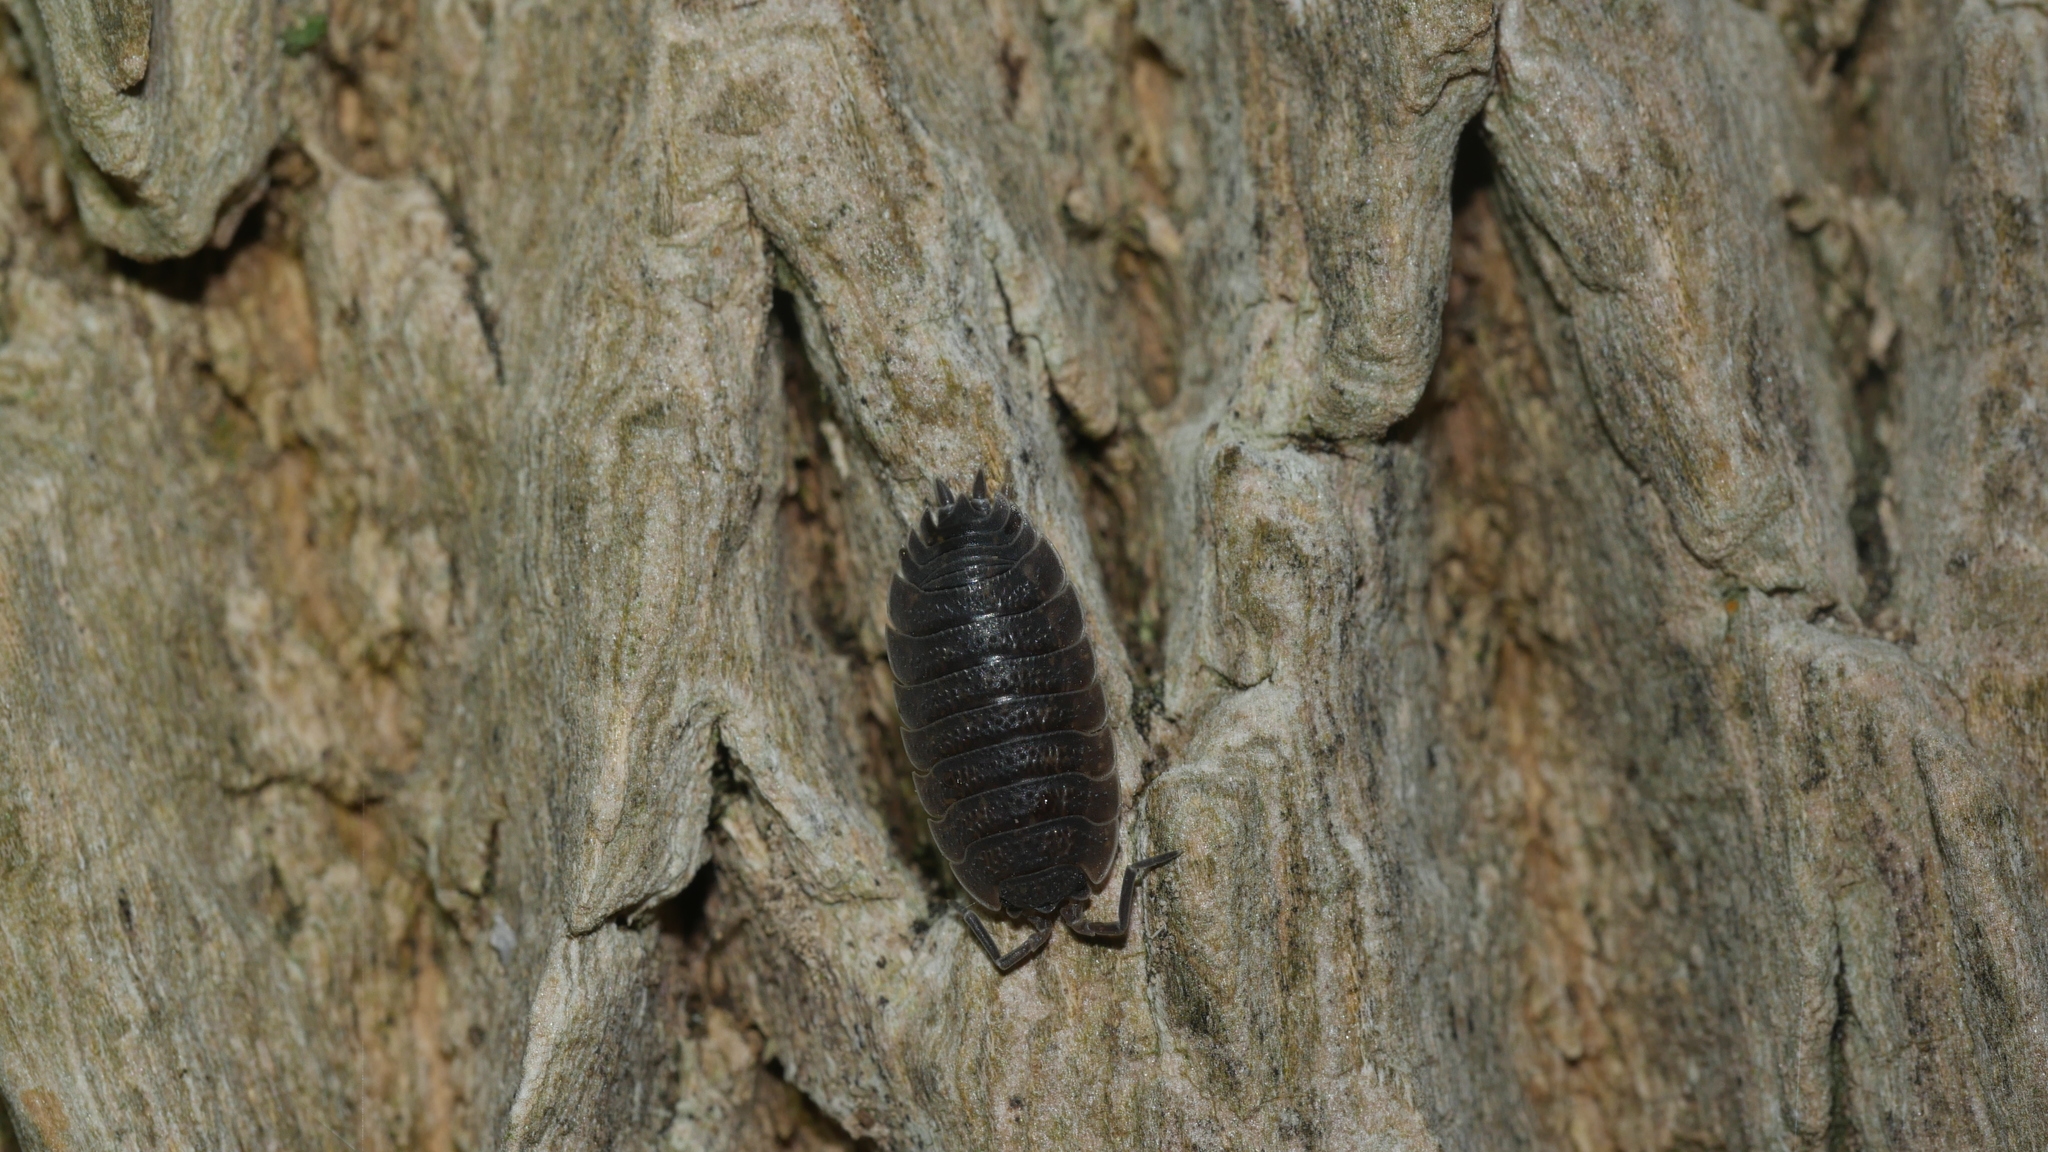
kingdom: Animalia
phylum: Arthropoda
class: Malacostraca
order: Isopoda
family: Porcellionidae
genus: Porcellio
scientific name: Porcellio scaber
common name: Common rough woodlouse
